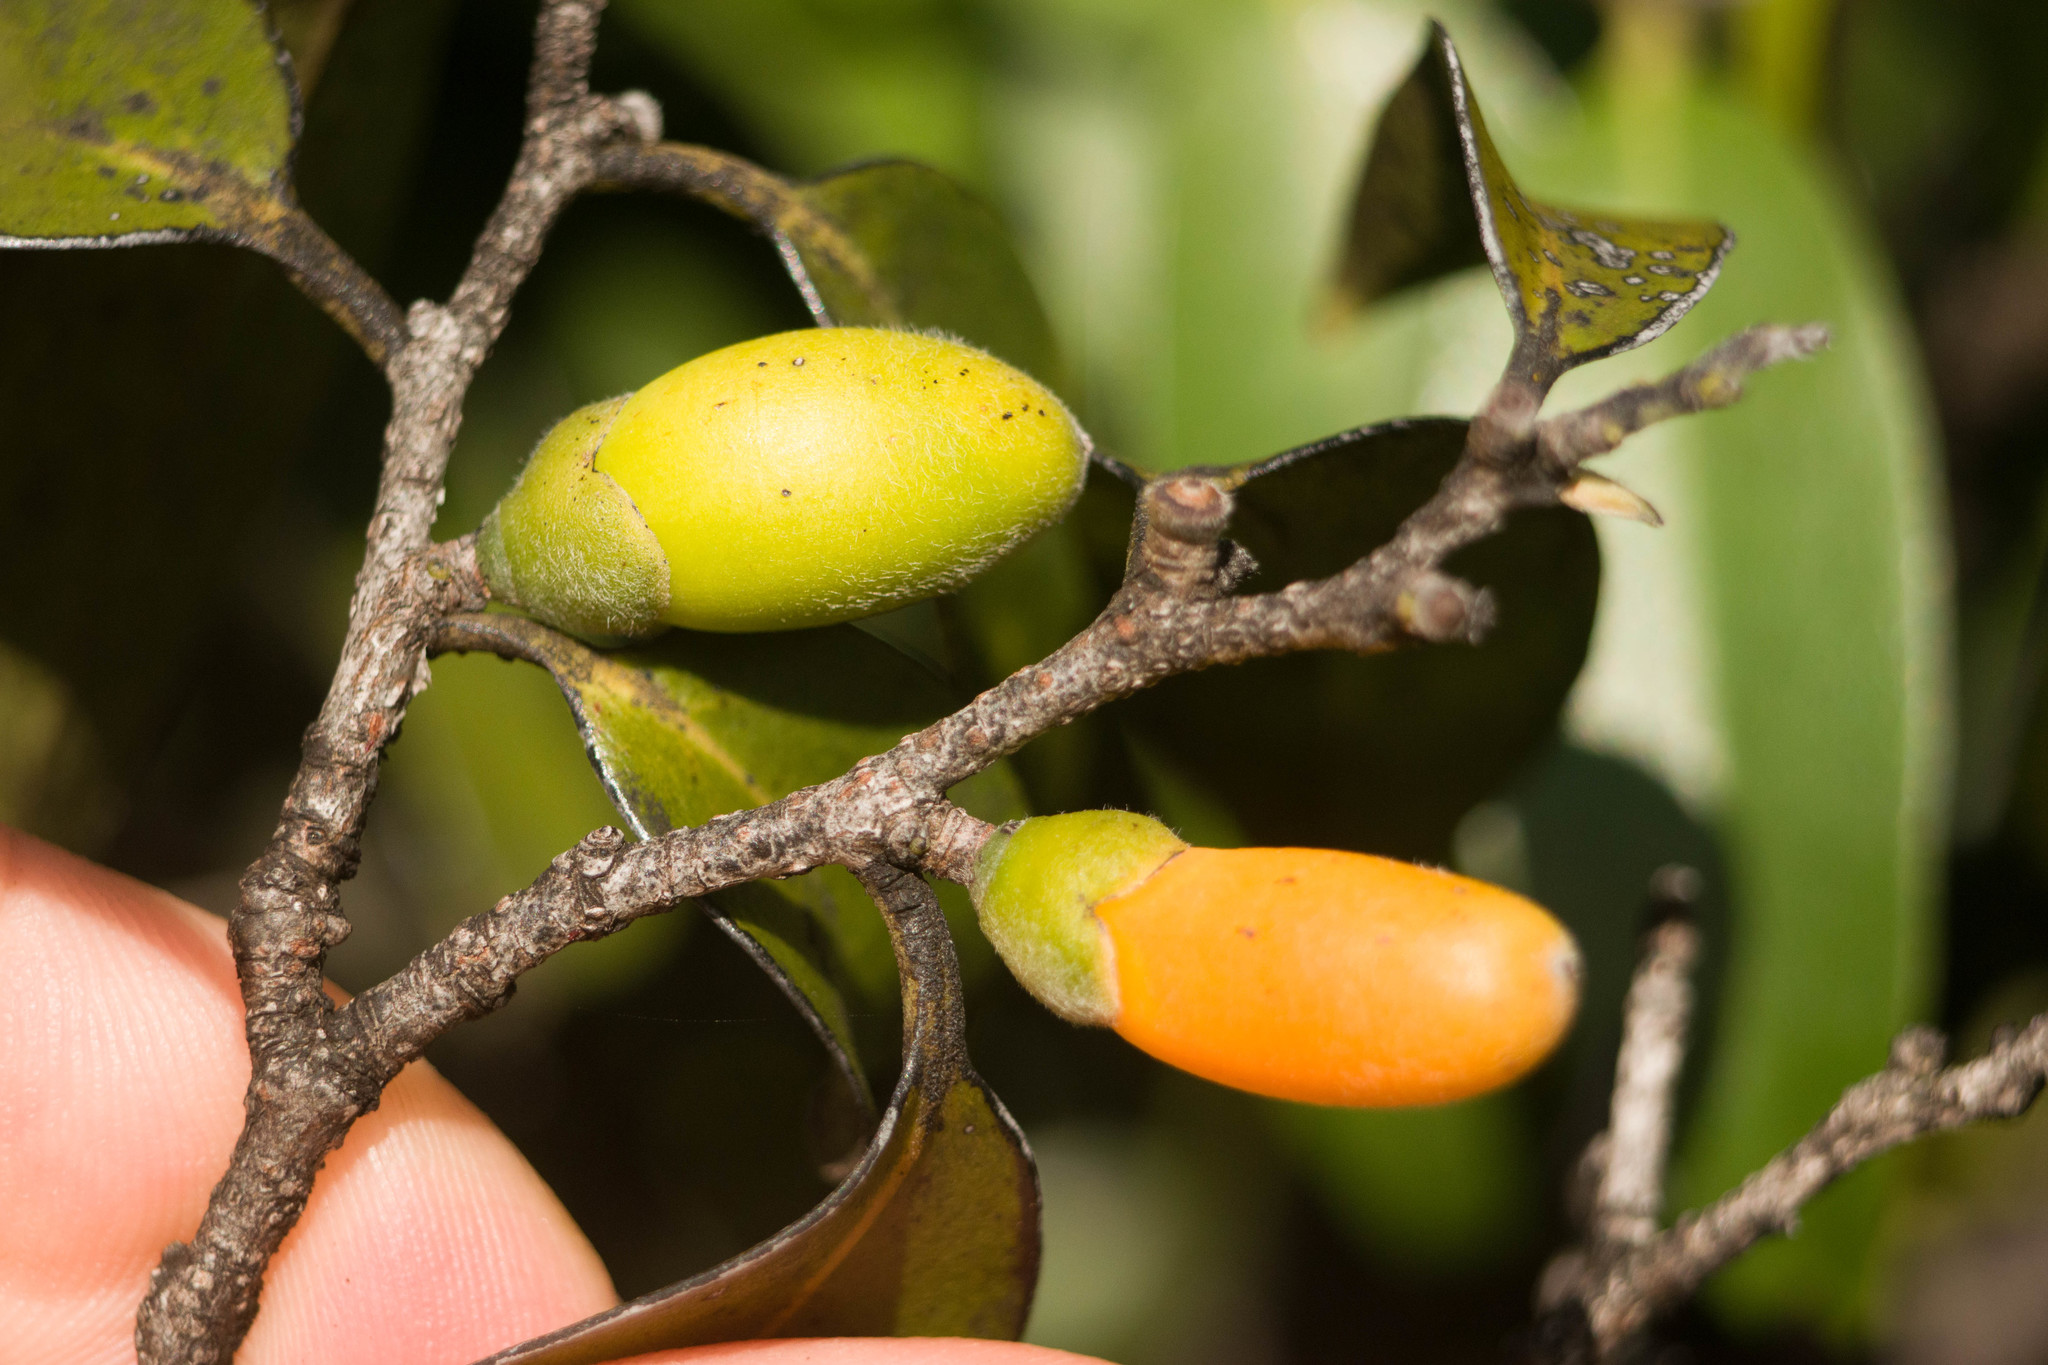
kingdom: Plantae
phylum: Tracheophyta
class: Magnoliopsida
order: Ericales
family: Ebenaceae
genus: Diospyros
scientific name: Diospyros sandwicensis
